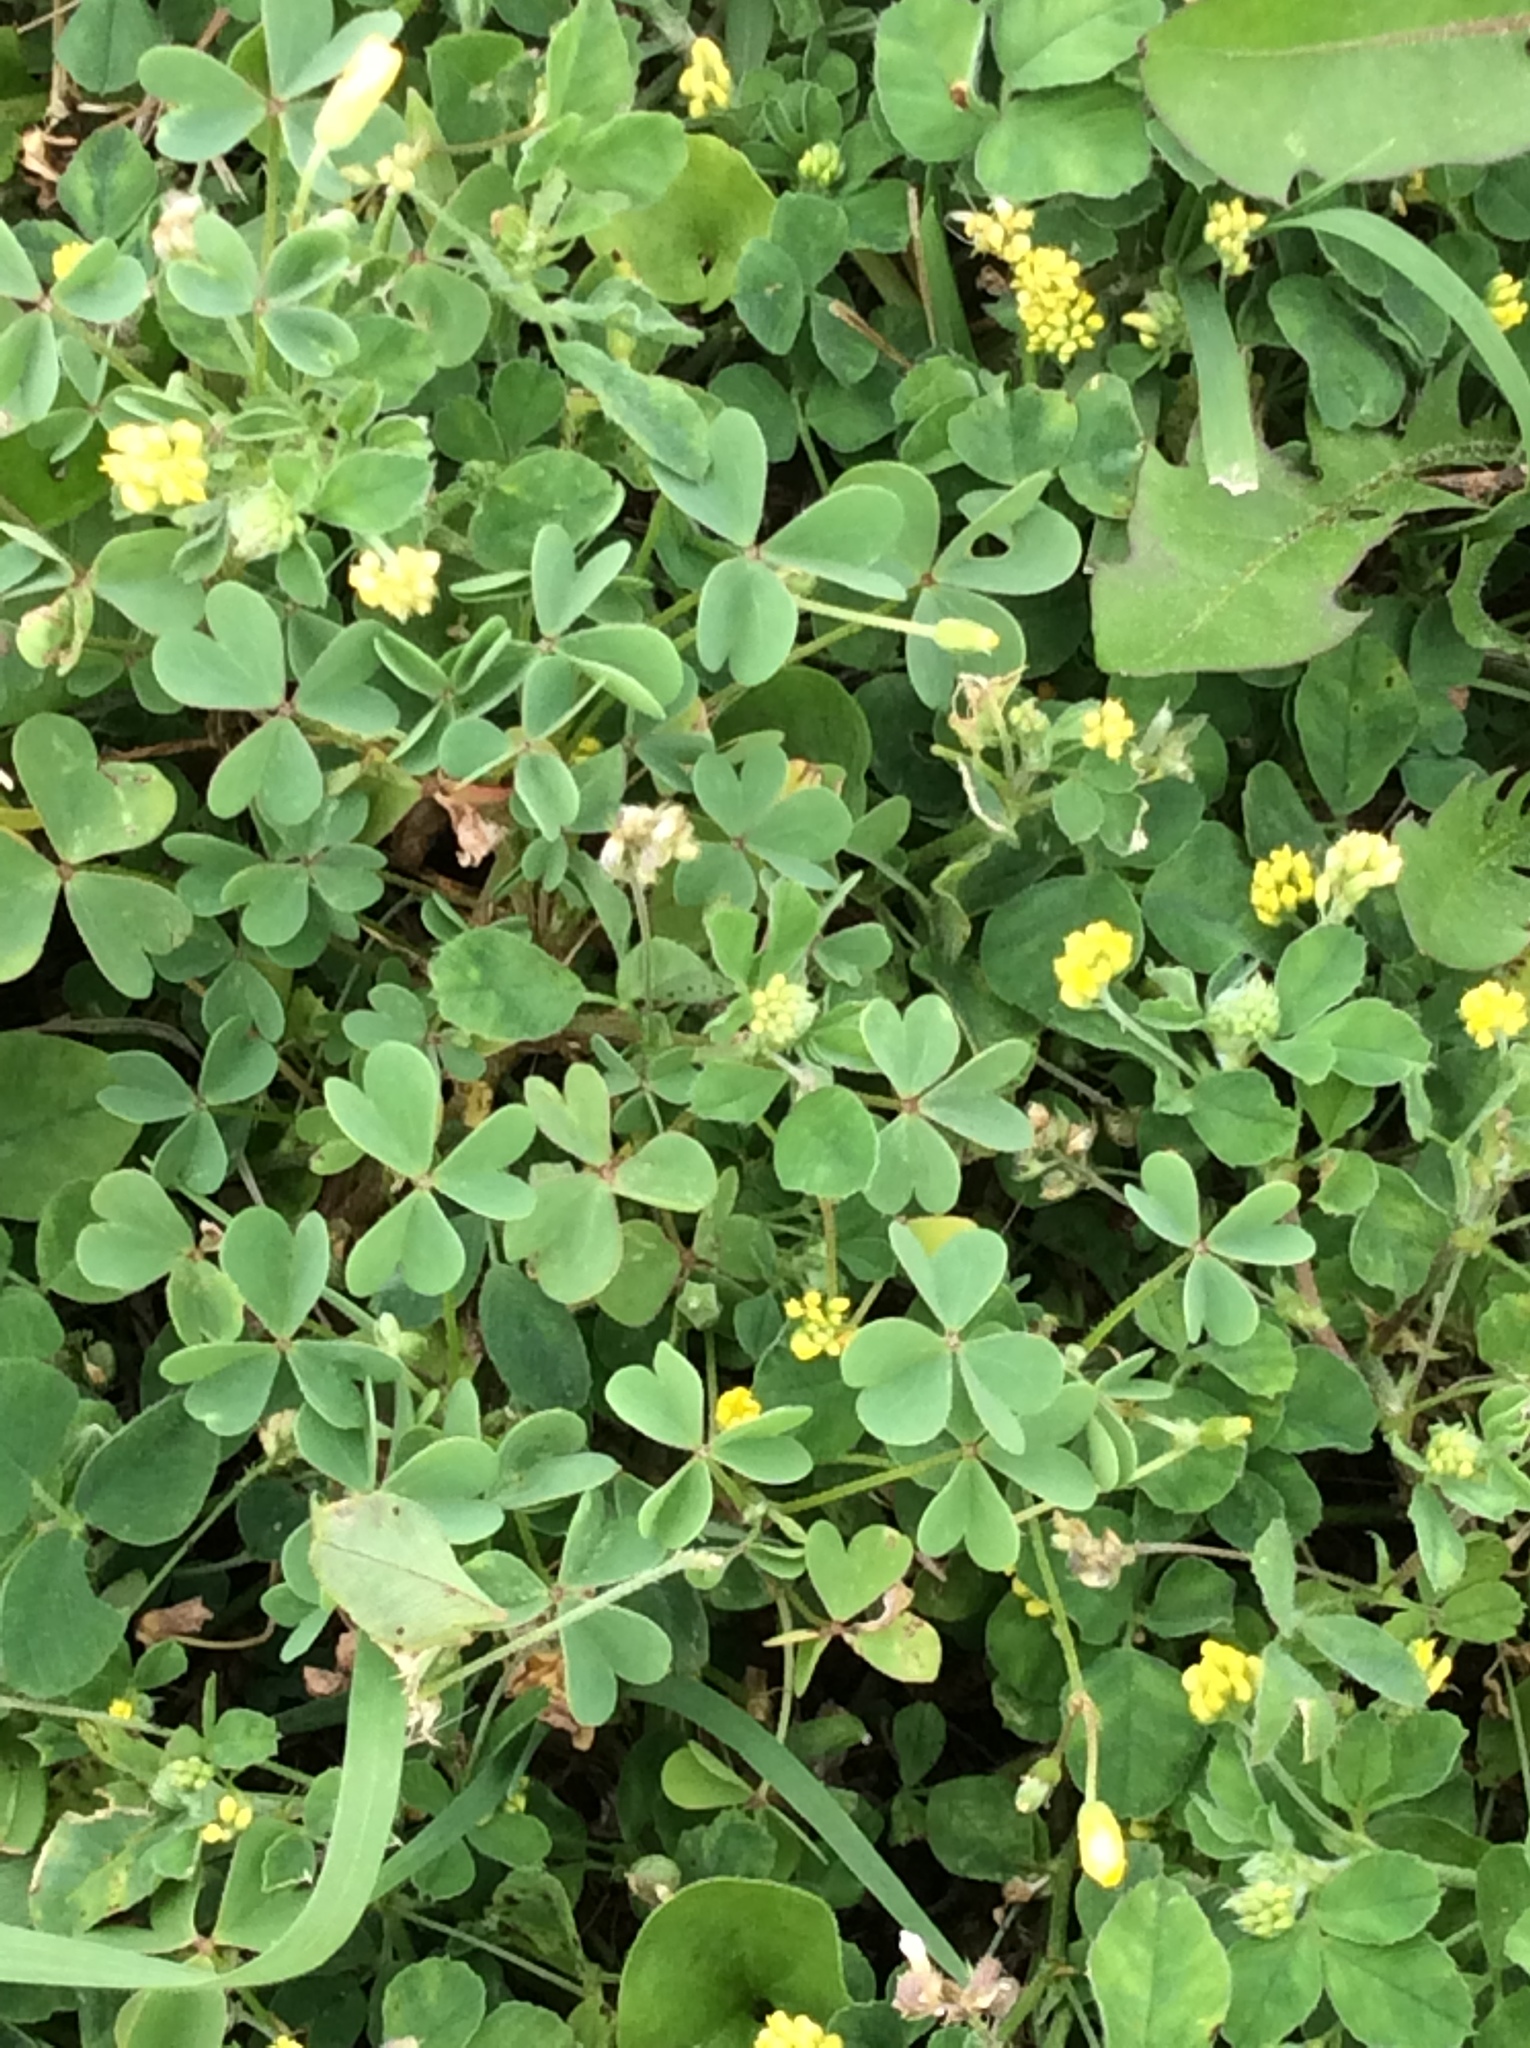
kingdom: Plantae
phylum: Tracheophyta
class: Magnoliopsida
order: Fabales
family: Fabaceae
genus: Medicago
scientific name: Medicago lupulina
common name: Black medick
